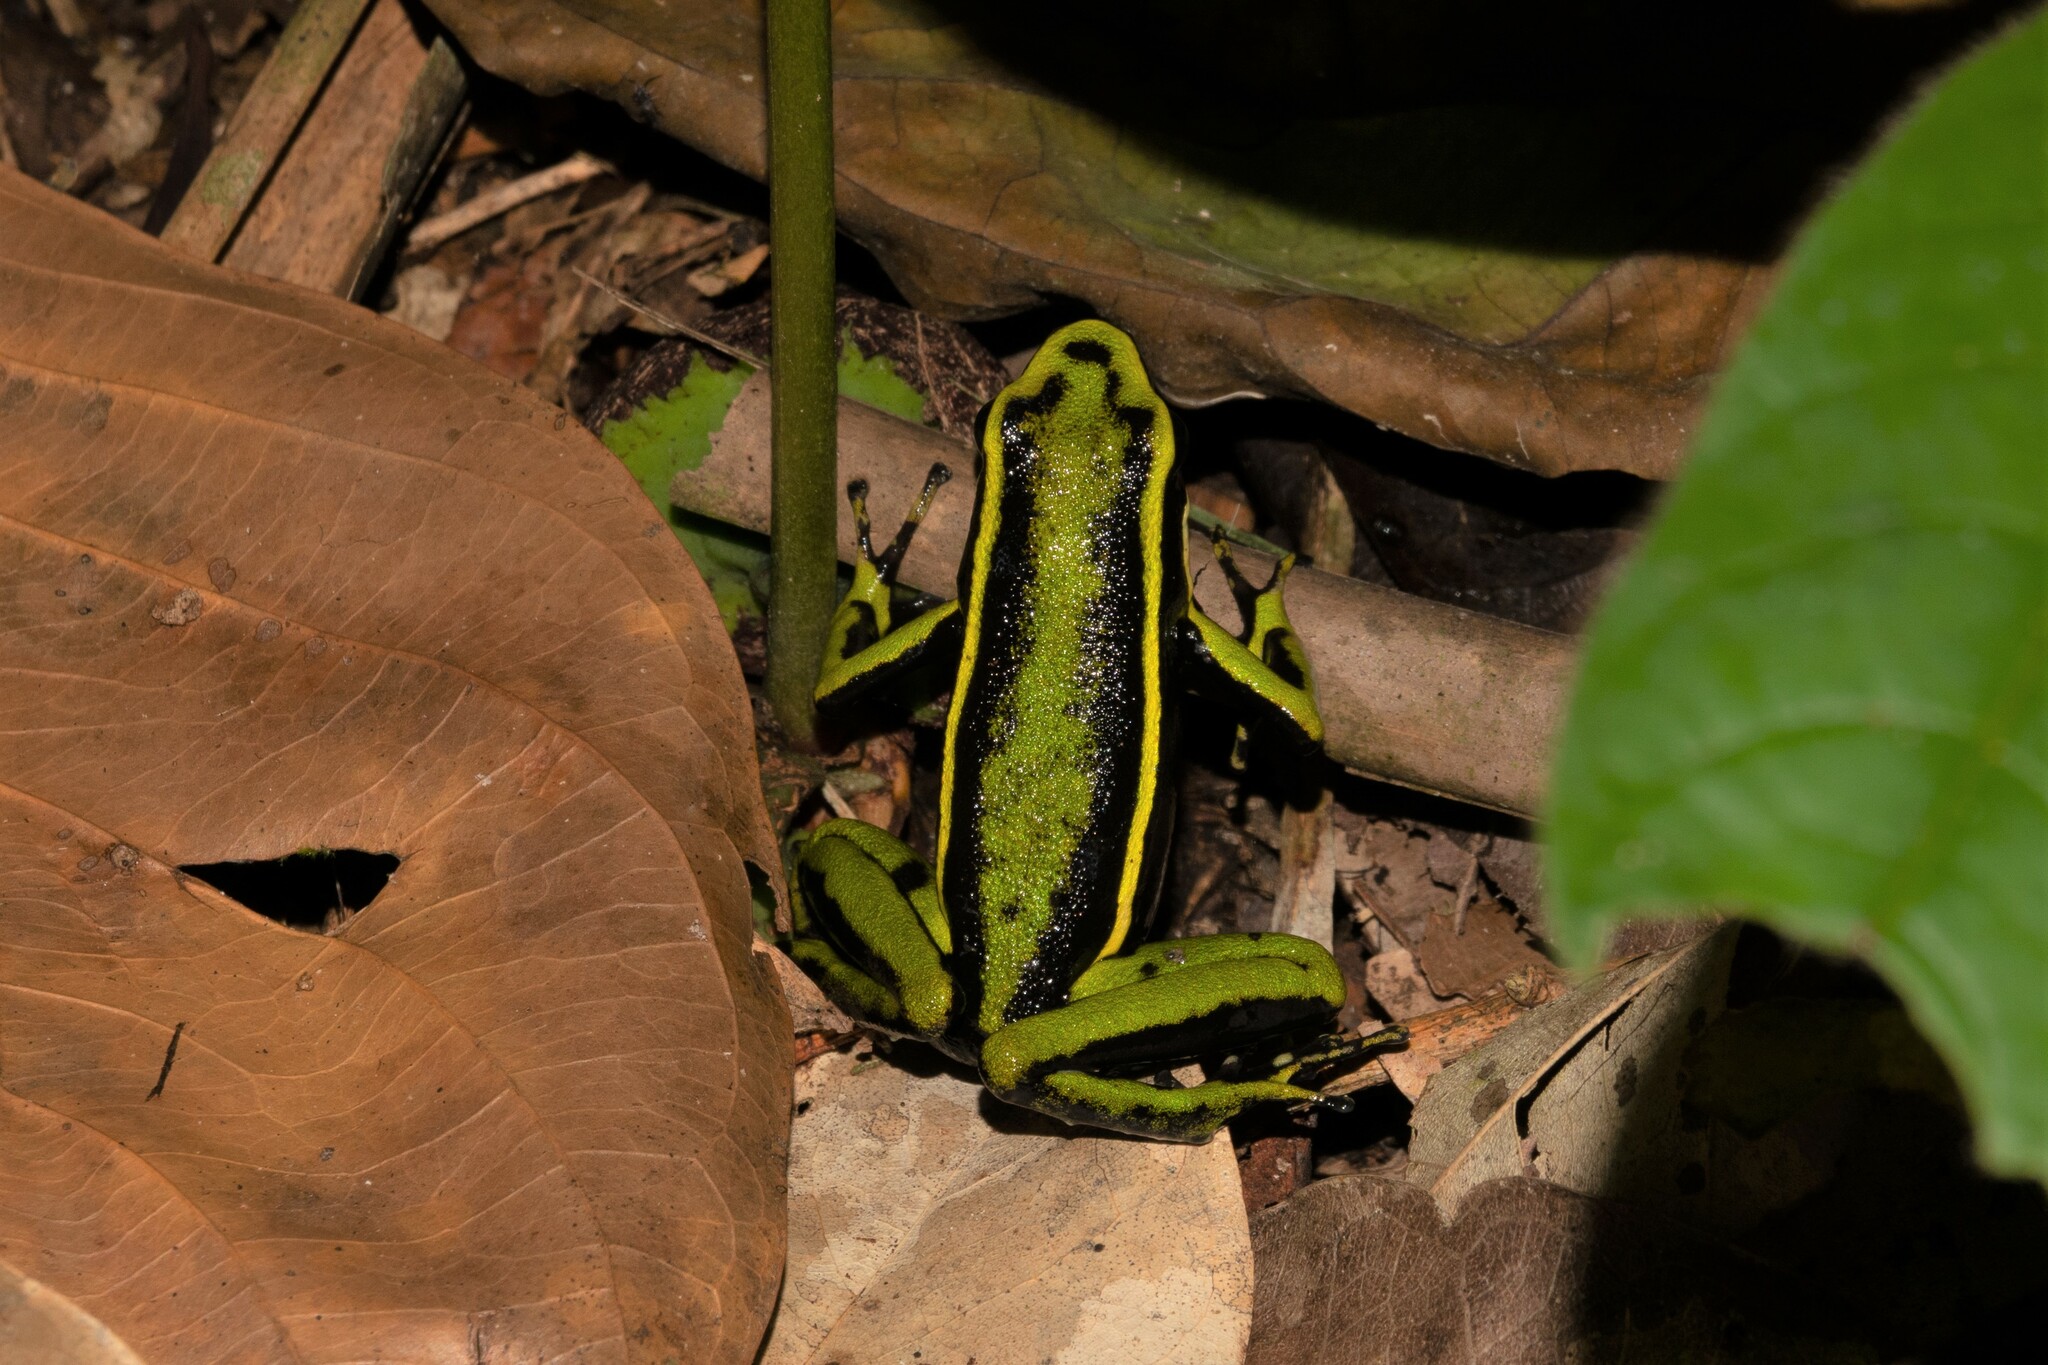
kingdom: Animalia
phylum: Chordata
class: Amphibia
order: Anura
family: Dendrobatidae
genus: Ameerega
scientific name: Ameerega trivittata
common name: Three-striped arrow-poison frog
